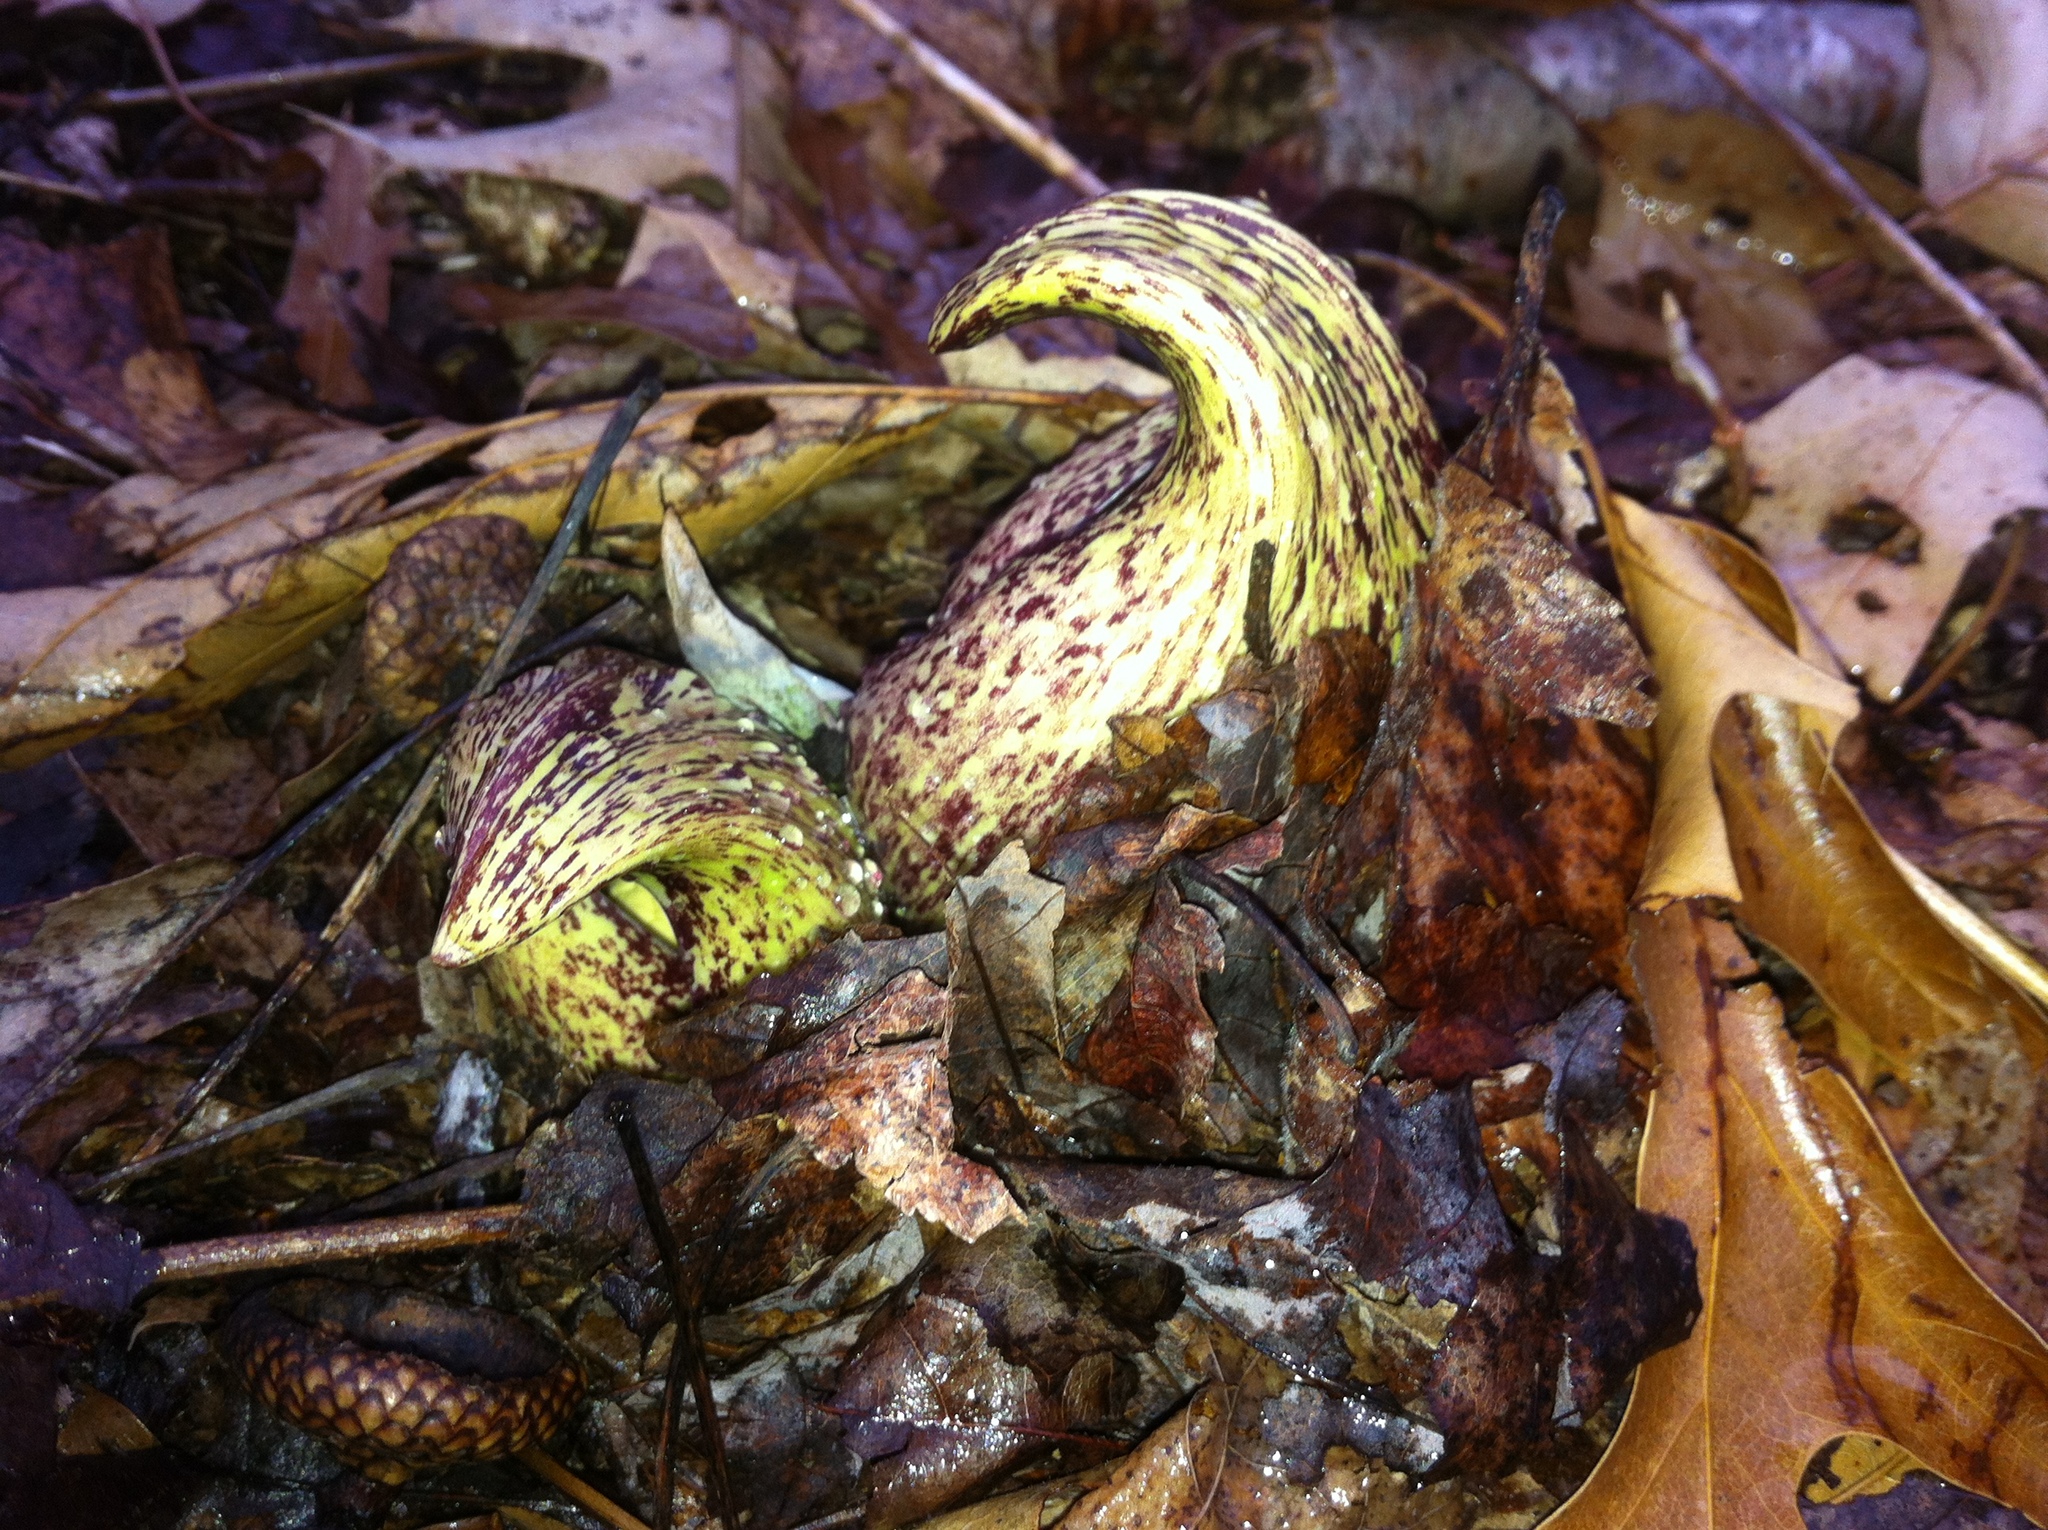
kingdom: Plantae
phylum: Tracheophyta
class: Liliopsida
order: Alismatales
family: Araceae
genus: Symplocarpus
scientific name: Symplocarpus foetidus
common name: Eastern skunk cabbage
